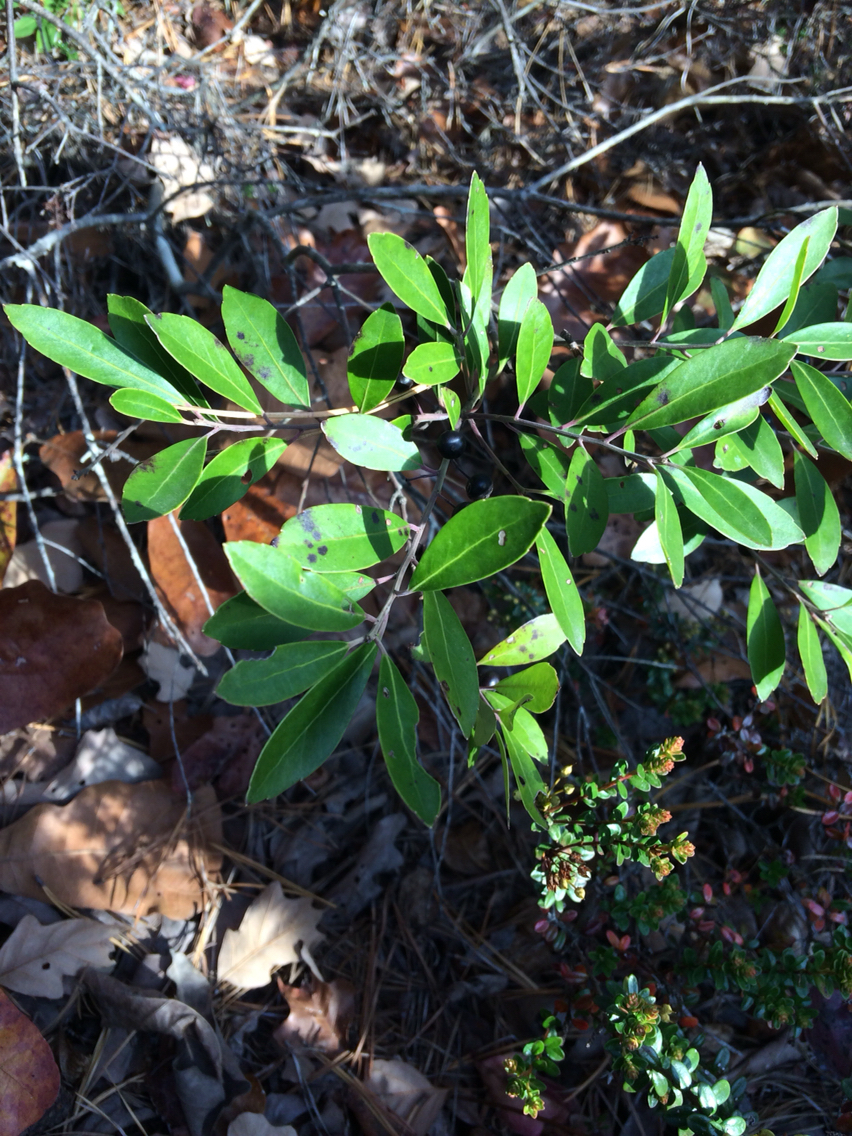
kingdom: Plantae
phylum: Tracheophyta
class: Magnoliopsida
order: Aquifoliales
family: Aquifoliaceae
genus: Ilex
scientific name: Ilex glabra
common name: Bitter gallberry
